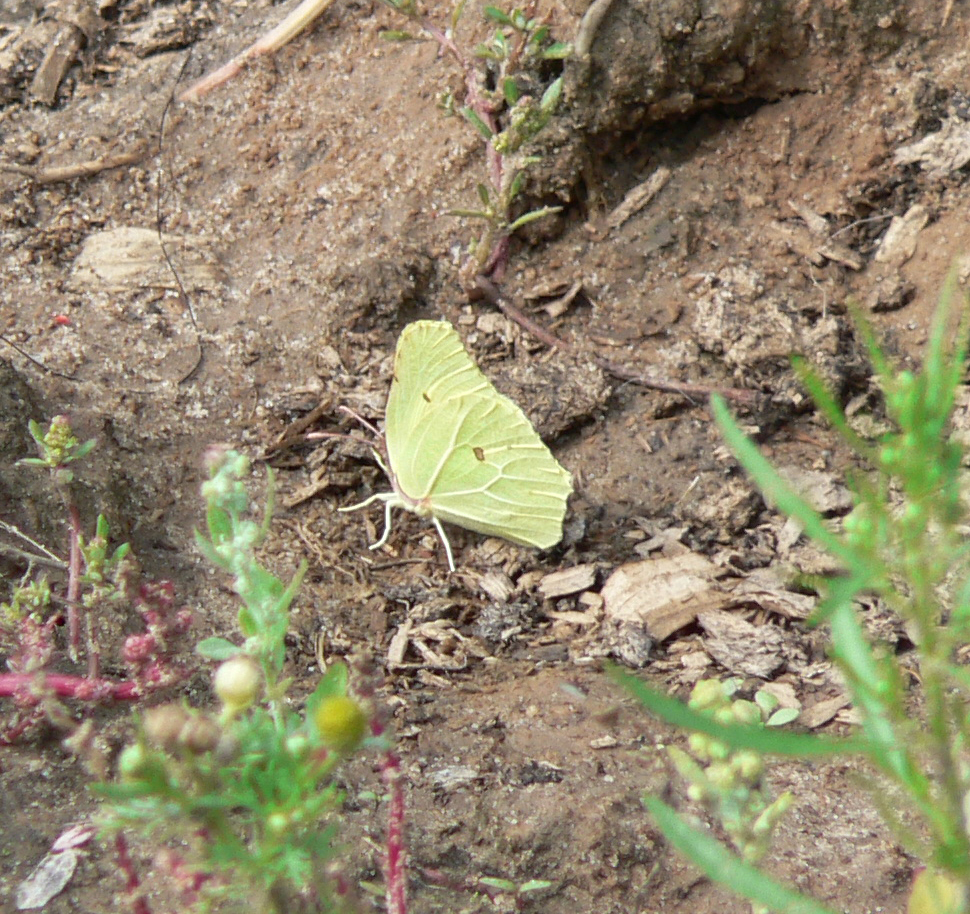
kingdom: Animalia
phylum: Arthropoda
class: Insecta
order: Lepidoptera
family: Pieridae
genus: Gonepteryx
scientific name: Gonepteryx rhamni
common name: Brimstone
